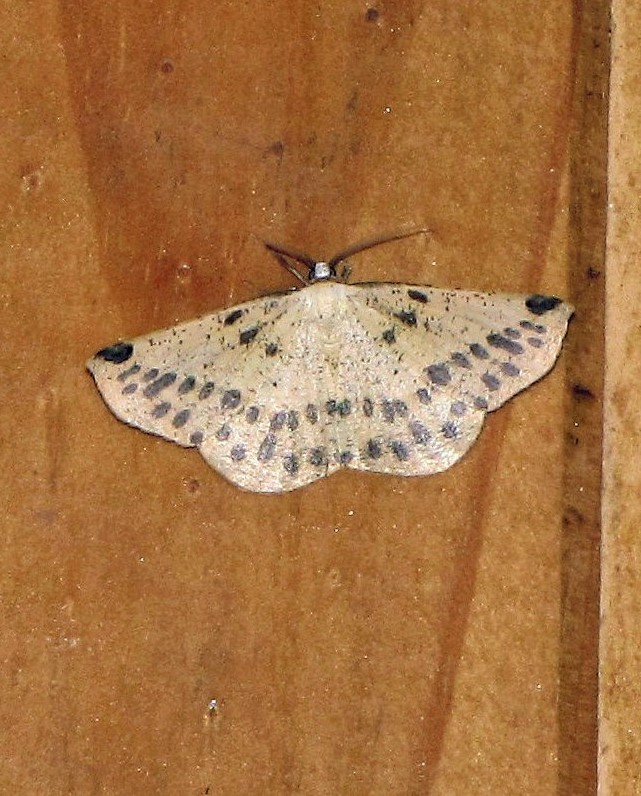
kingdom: Animalia
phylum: Arthropoda
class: Insecta
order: Lepidoptera
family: Geometridae
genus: Microsema
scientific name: Microsema gladiaria
